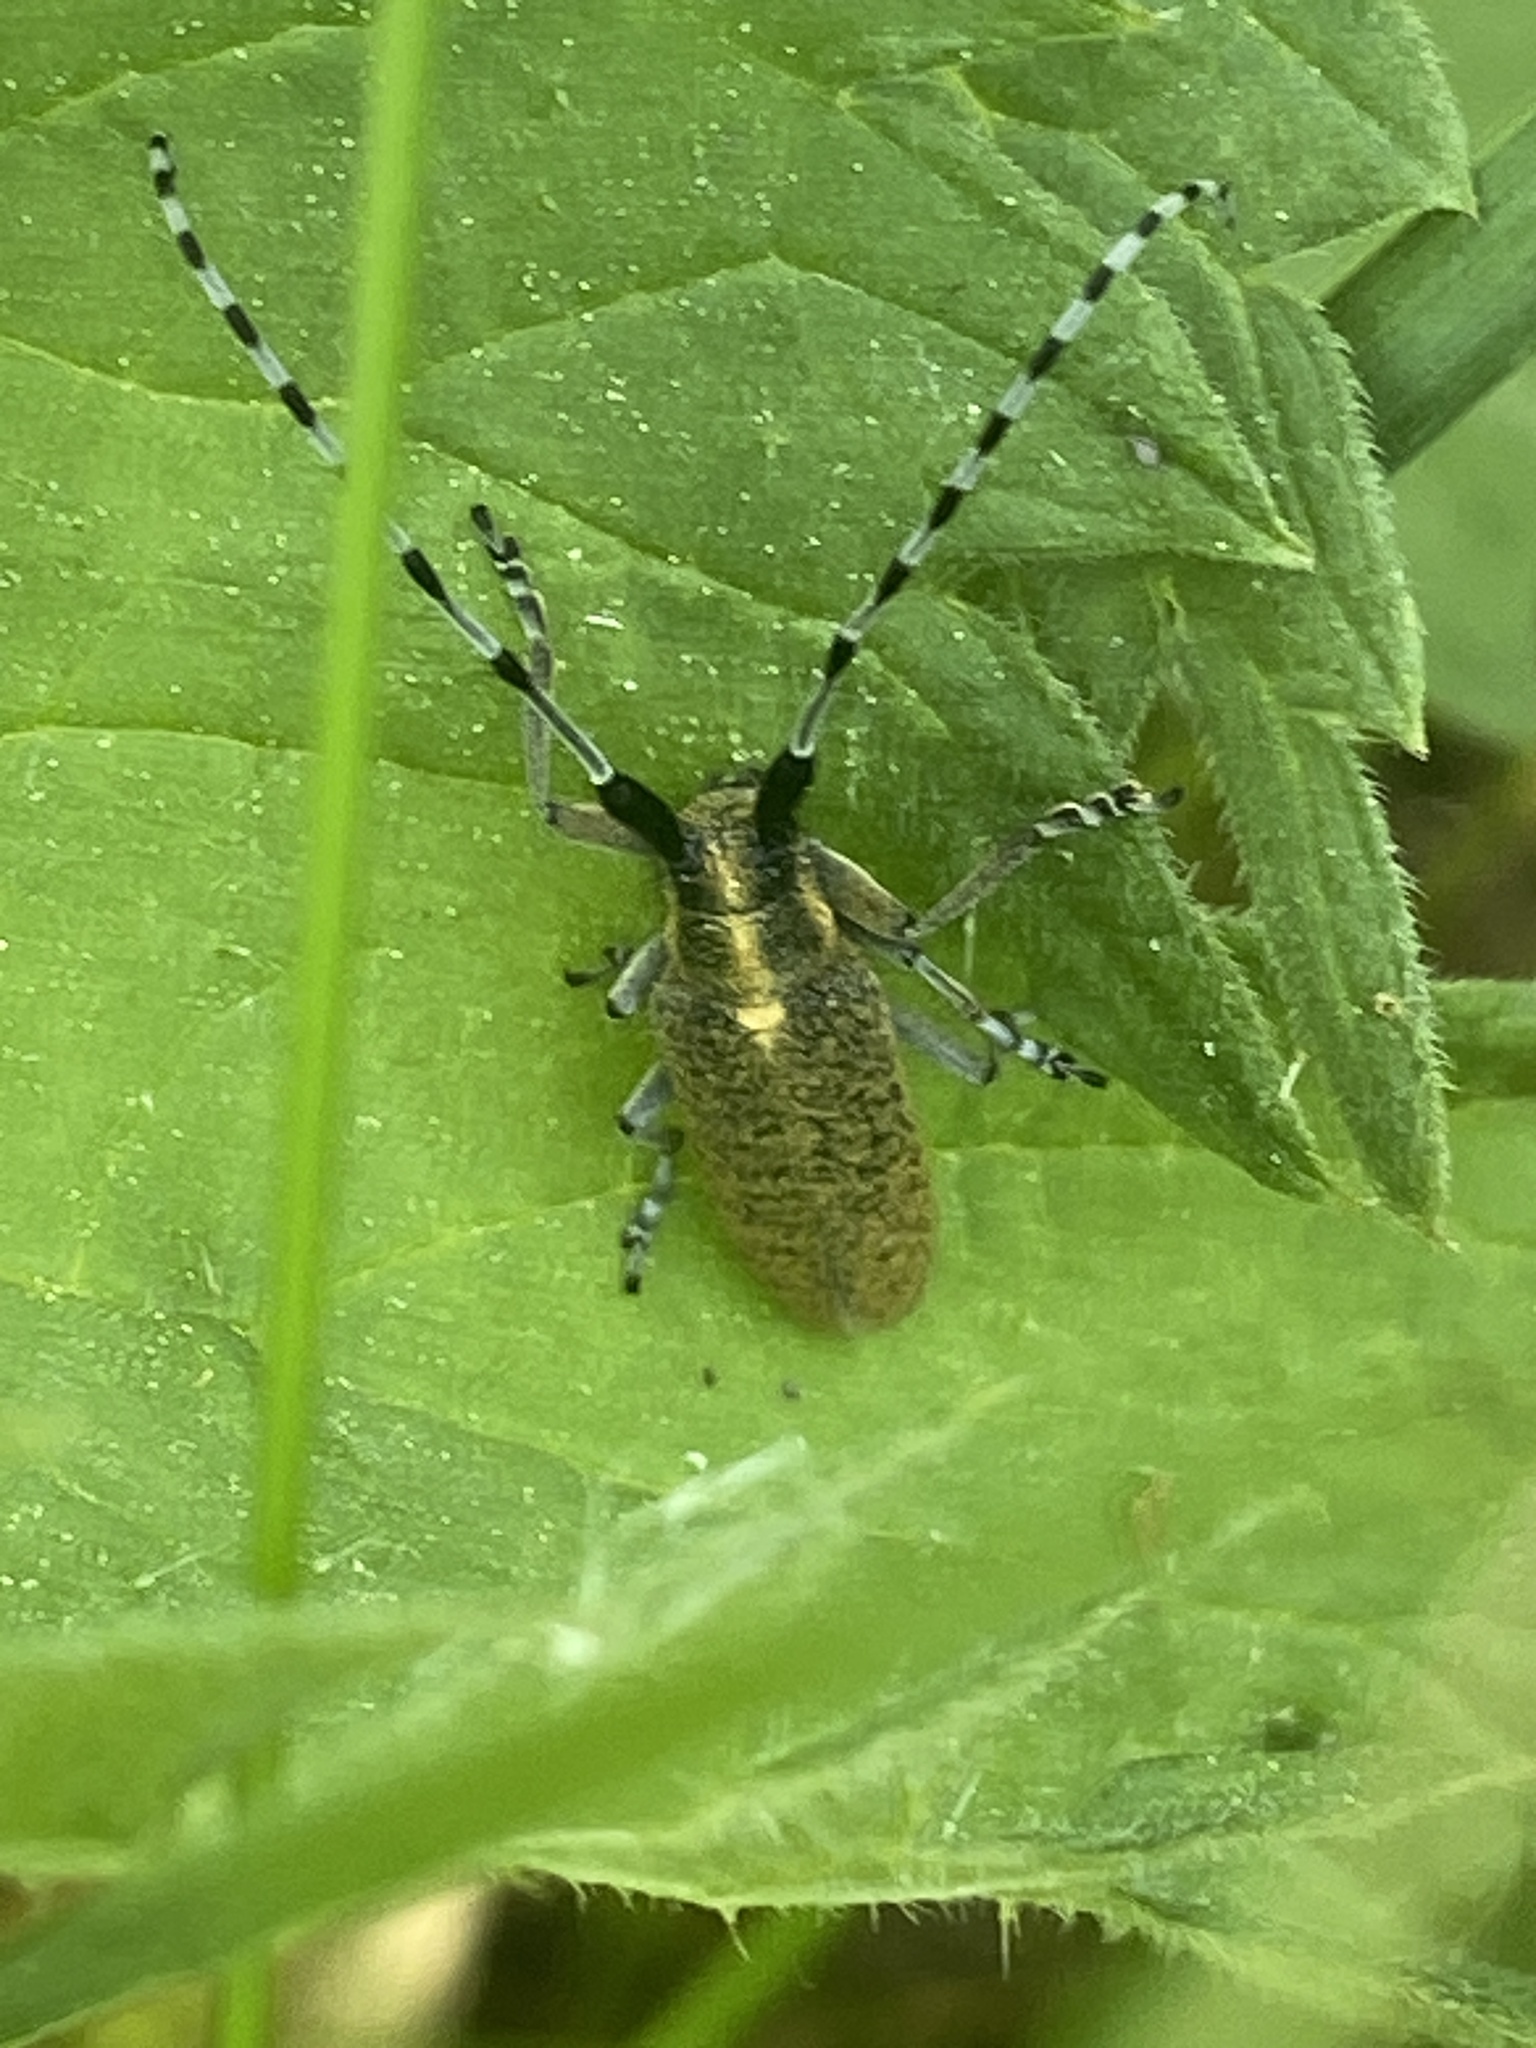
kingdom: Animalia
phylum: Arthropoda
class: Insecta
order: Coleoptera
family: Cerambycidae
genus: Agapanthia
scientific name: Agapanthia villosoviridescens
